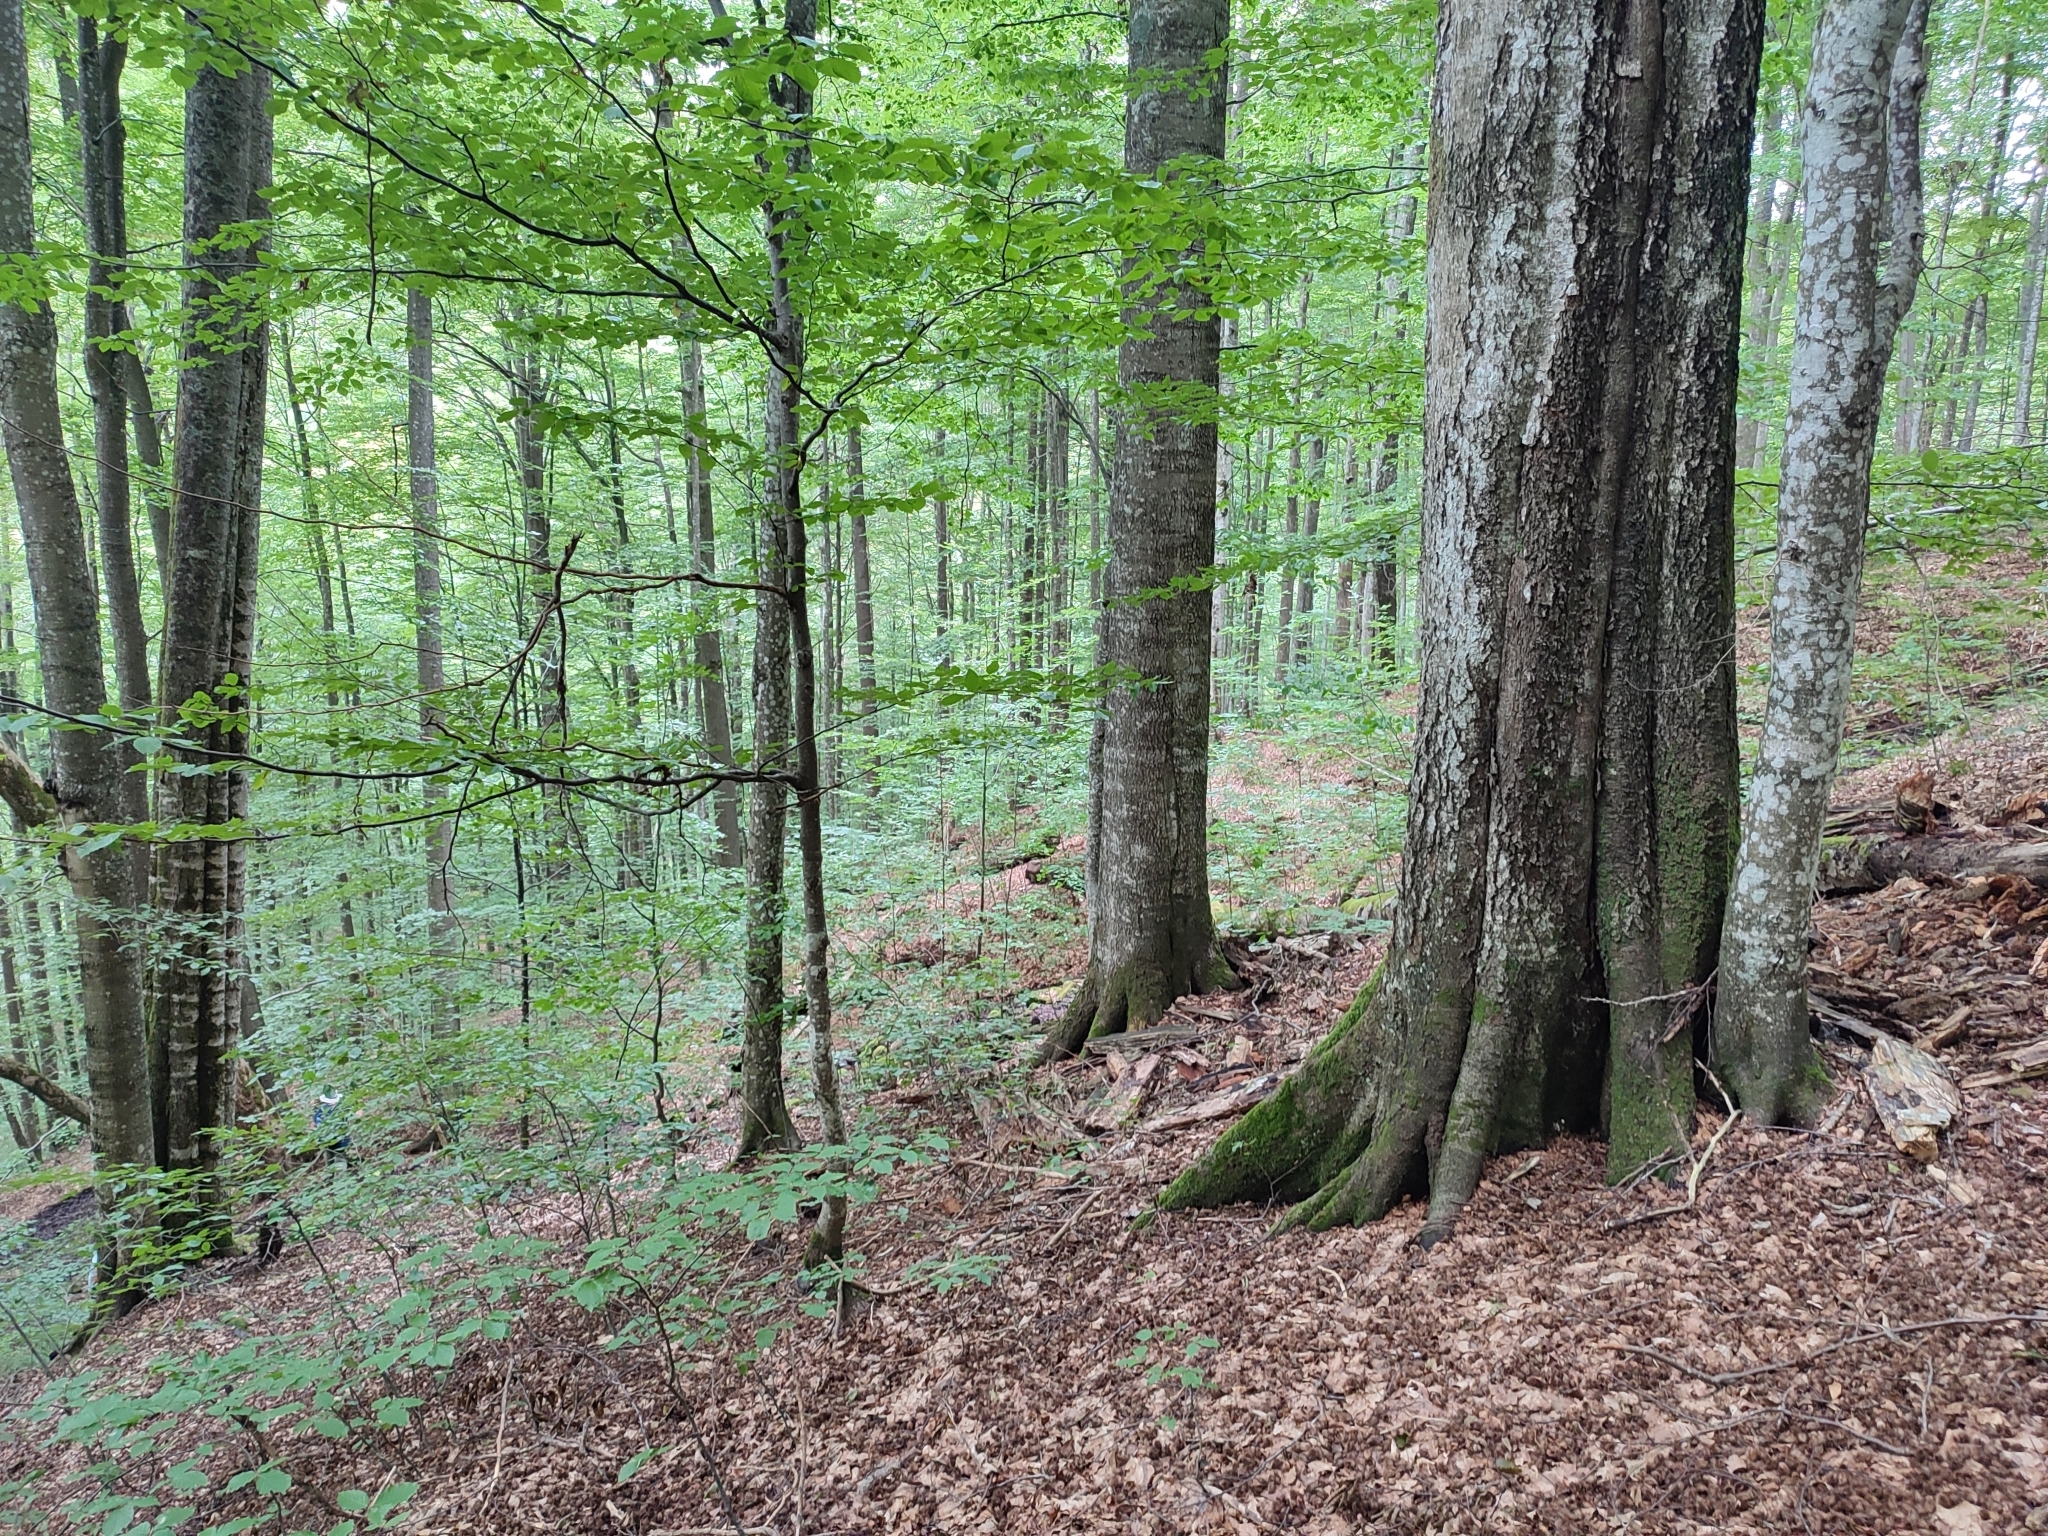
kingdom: Plantae
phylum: Tracheophyta
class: Magnoliopsida
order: Fagales
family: Fagaceae
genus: Fagus
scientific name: Fagus sylvatica
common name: Beech
